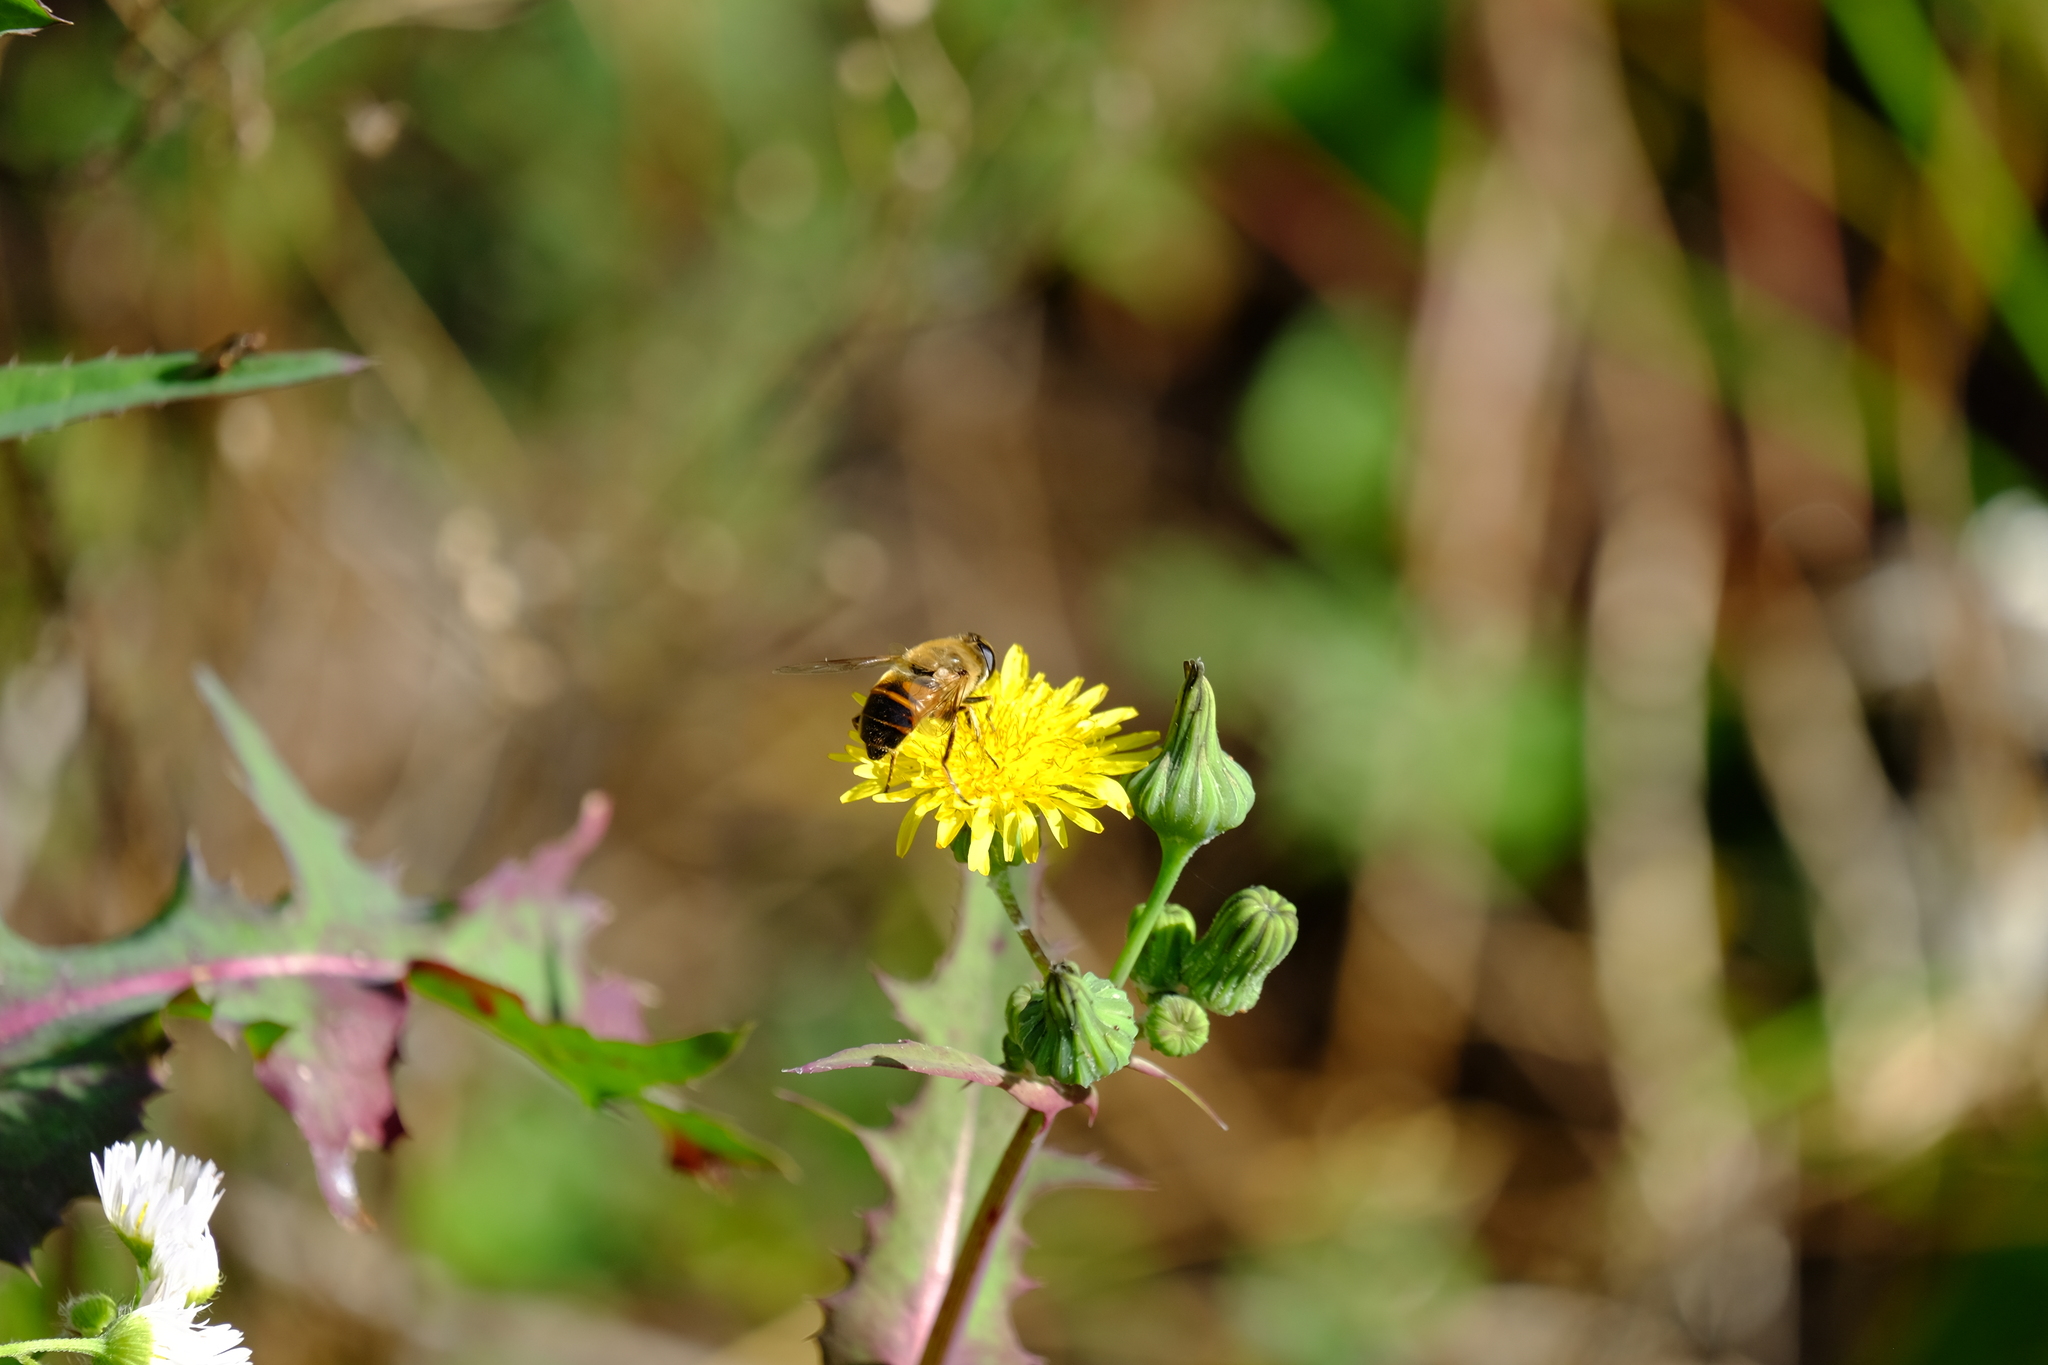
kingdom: Animalia
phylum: Arthropoda
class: Insecta
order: Diptera
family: Syrphidae
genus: Eristalis
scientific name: Eristalis tenax
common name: Drone fly
